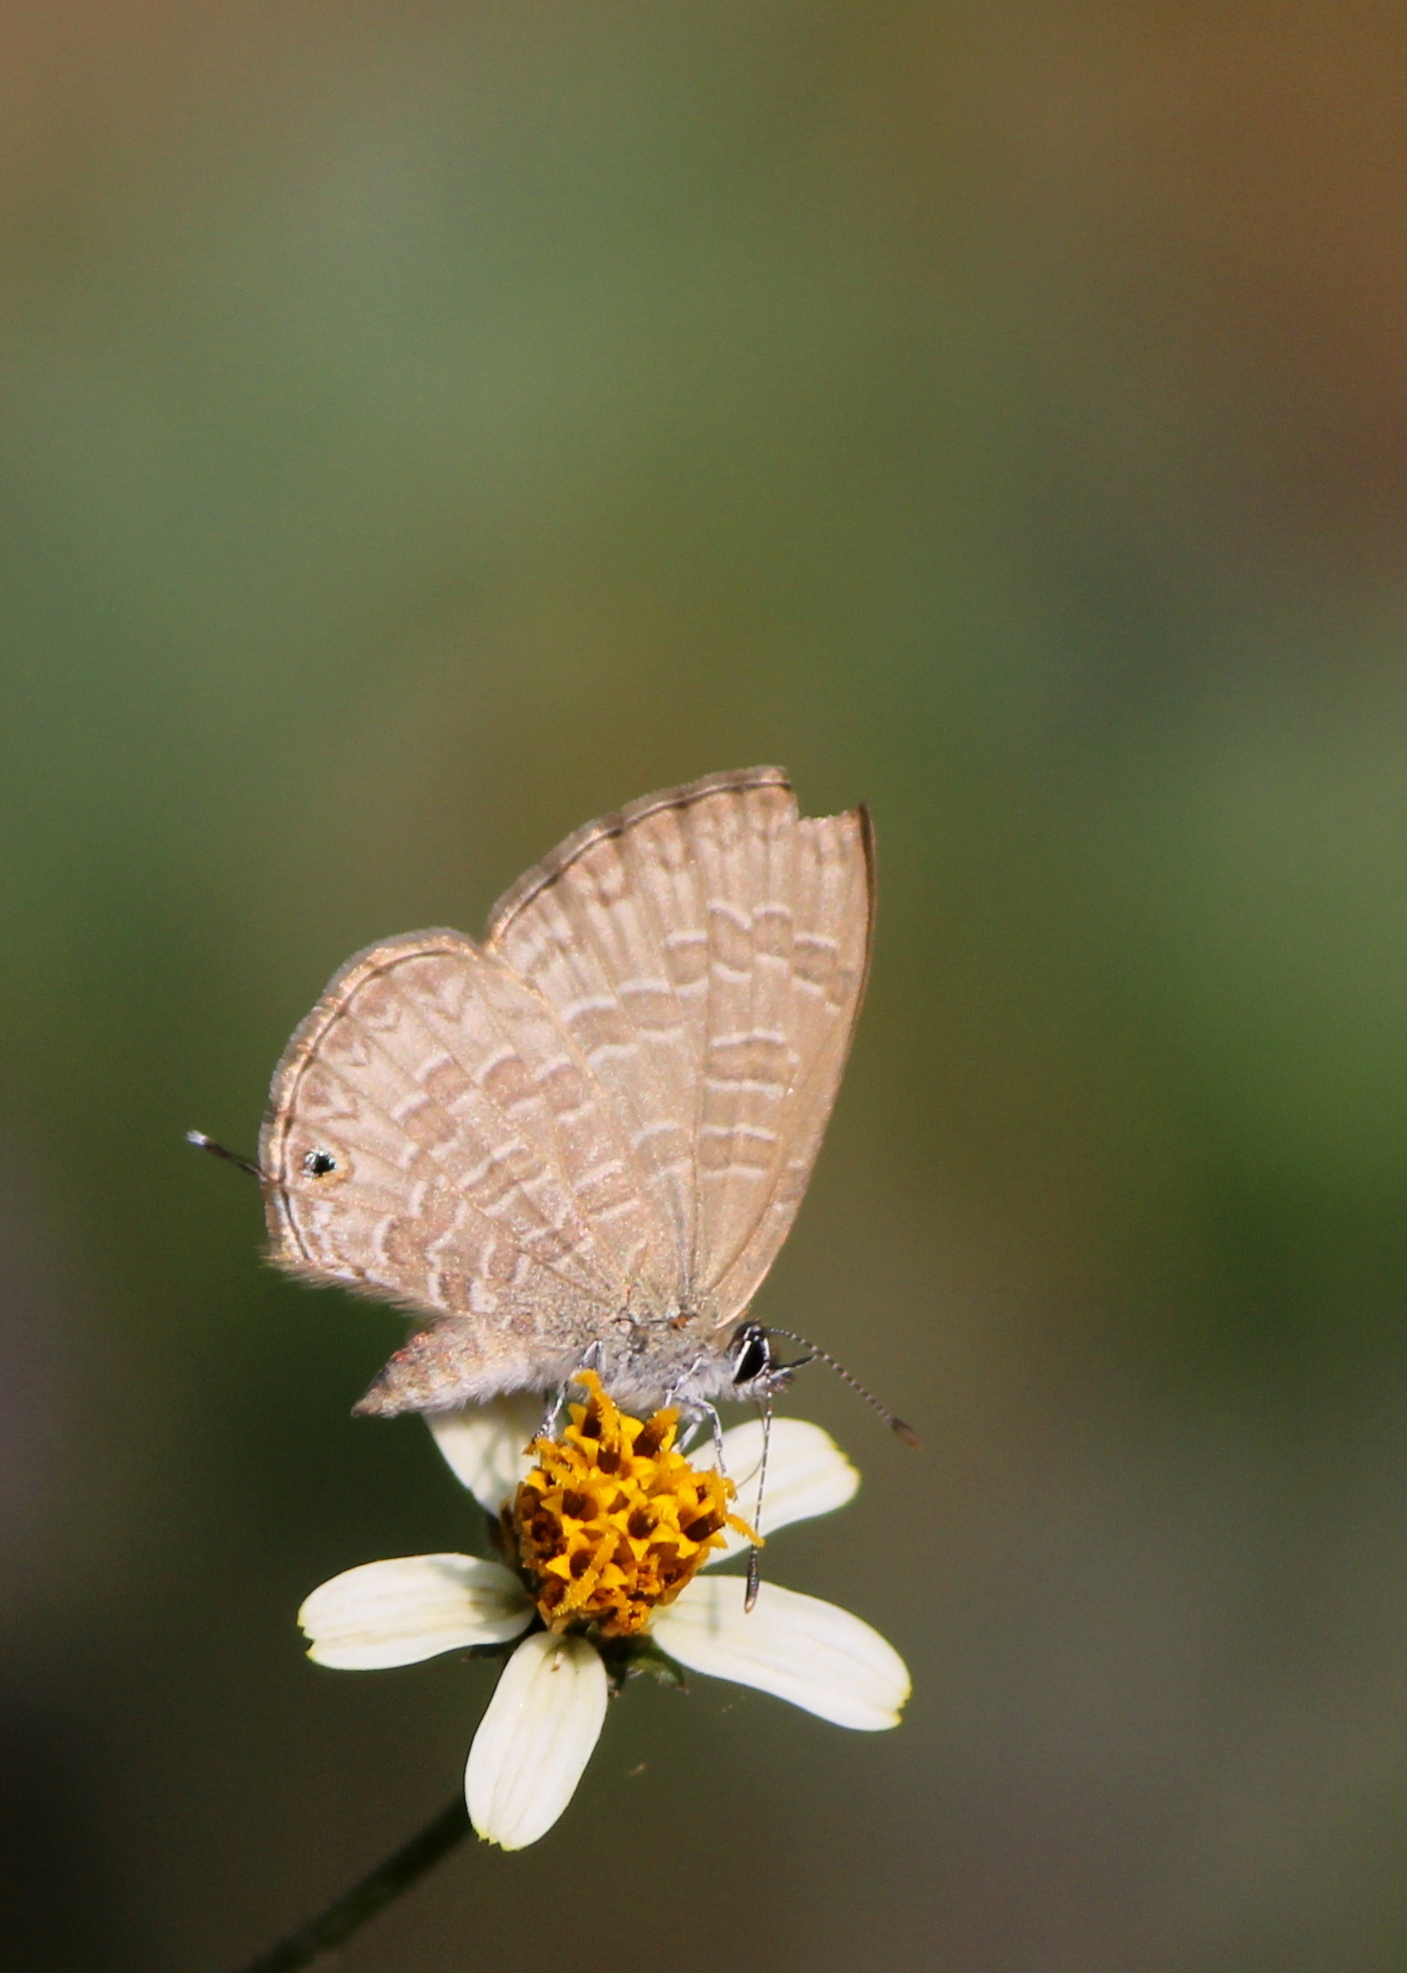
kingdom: Animalia
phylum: Arthropoda
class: Insecta
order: Lepidoptera
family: Lycaenidae
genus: Prosotas
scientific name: Prosotas nora
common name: Common line blue
